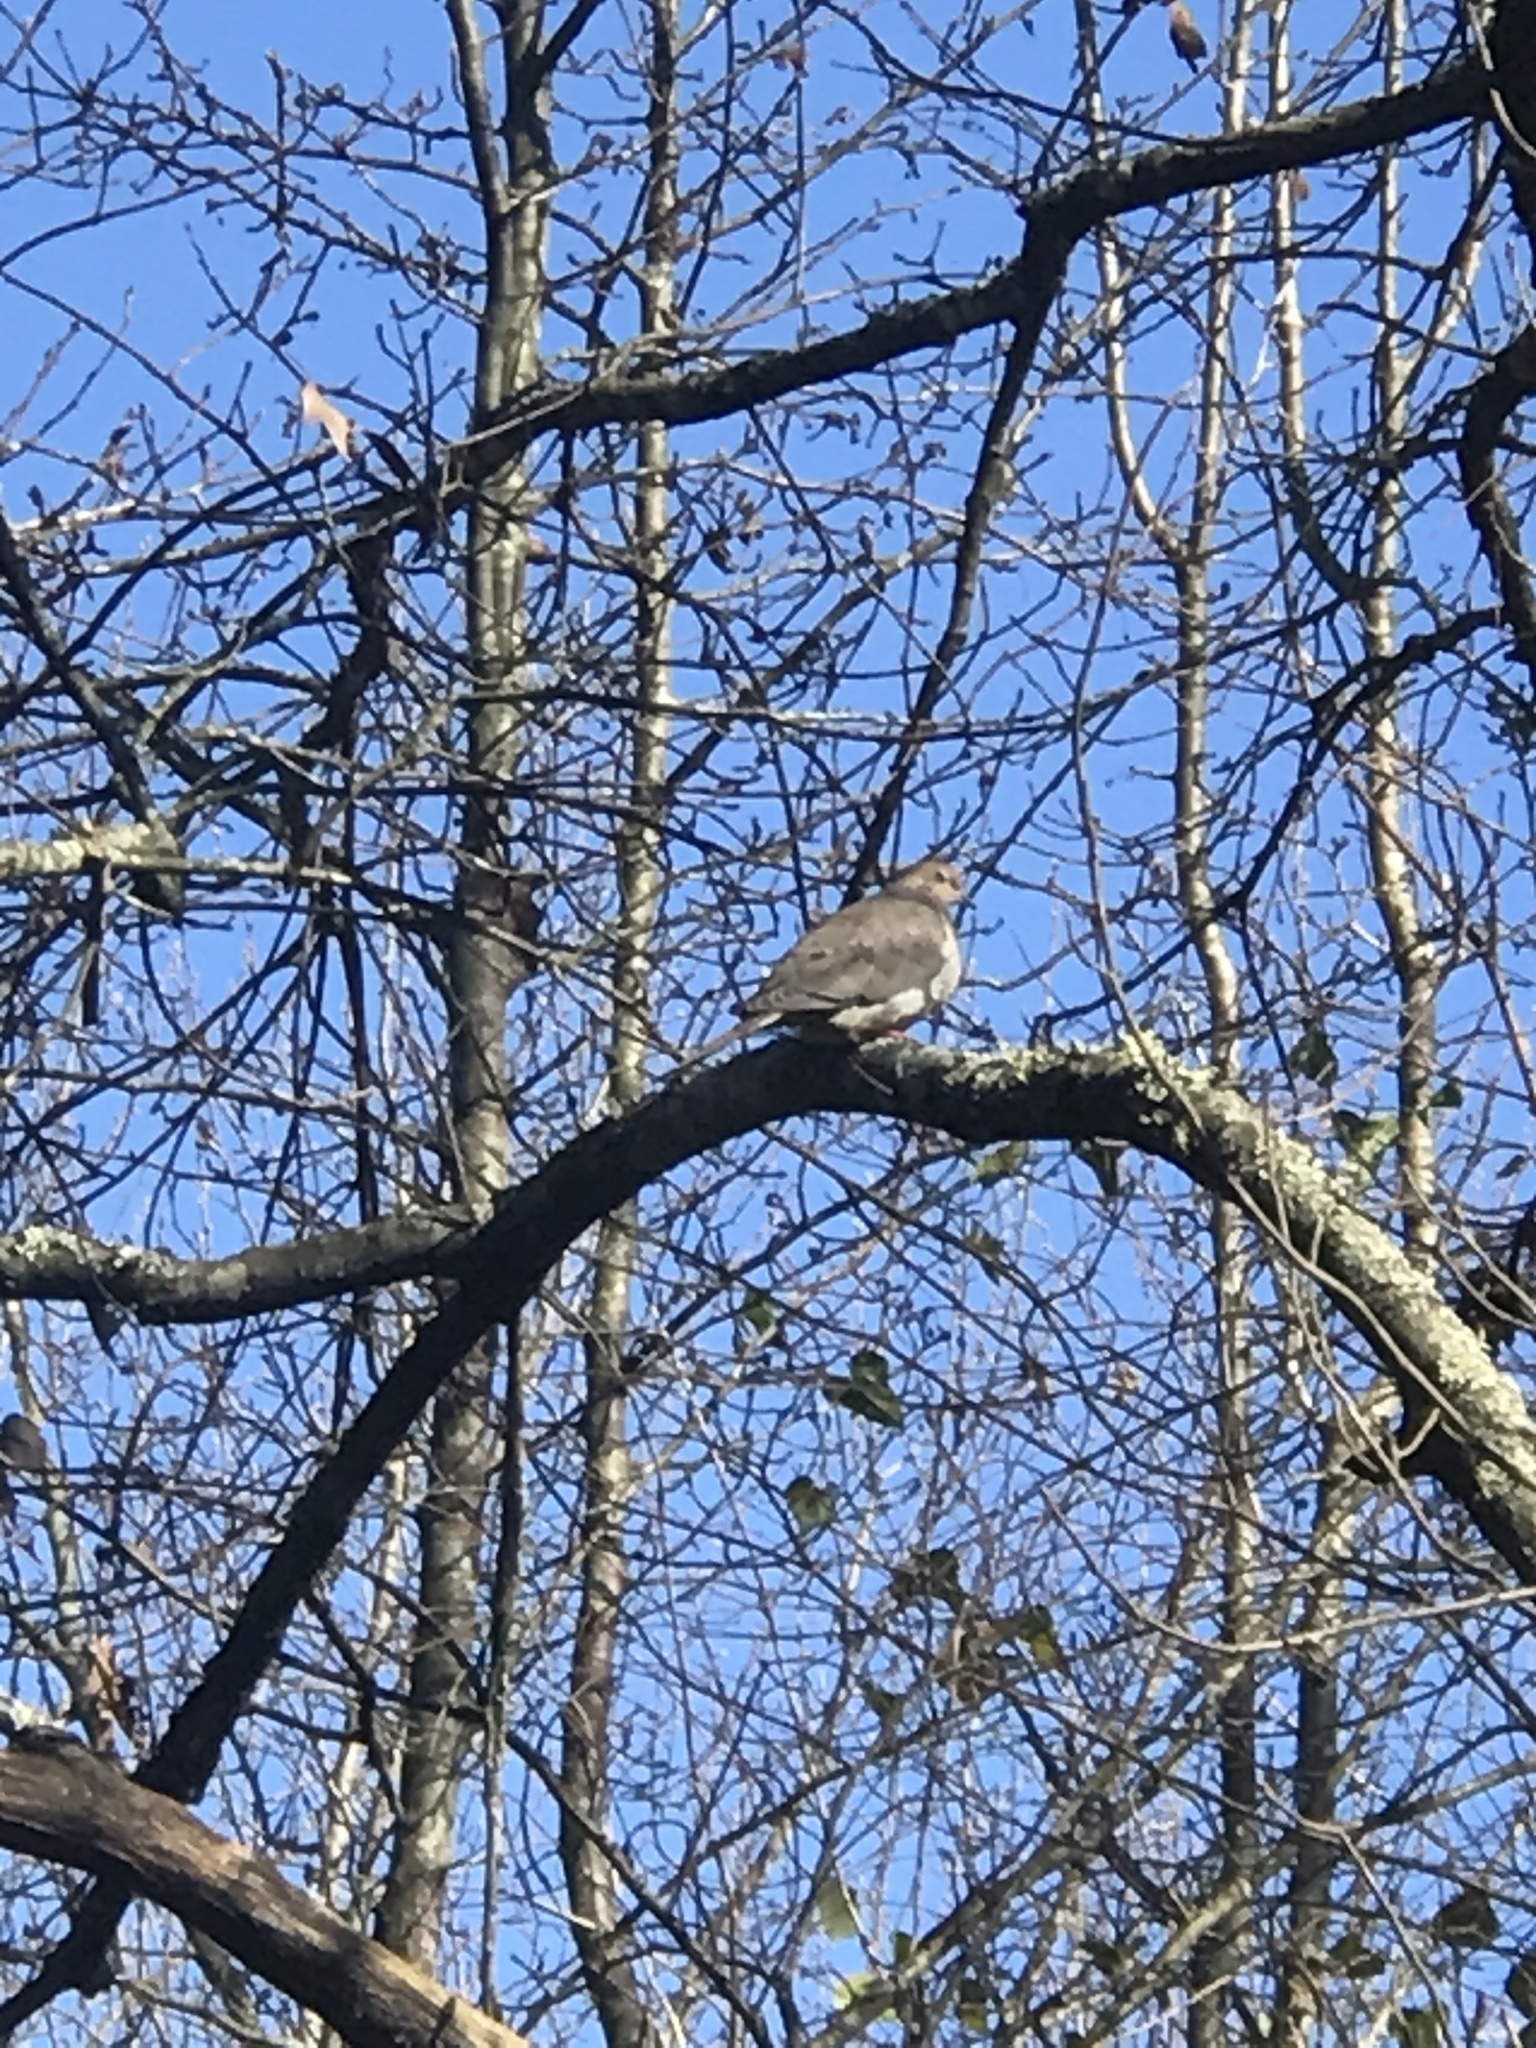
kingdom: Animalia
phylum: Chordata
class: Aves
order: Columbiformes
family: Columbidae
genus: Zenaida
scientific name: Zenaida macroura
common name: Mourning dove
